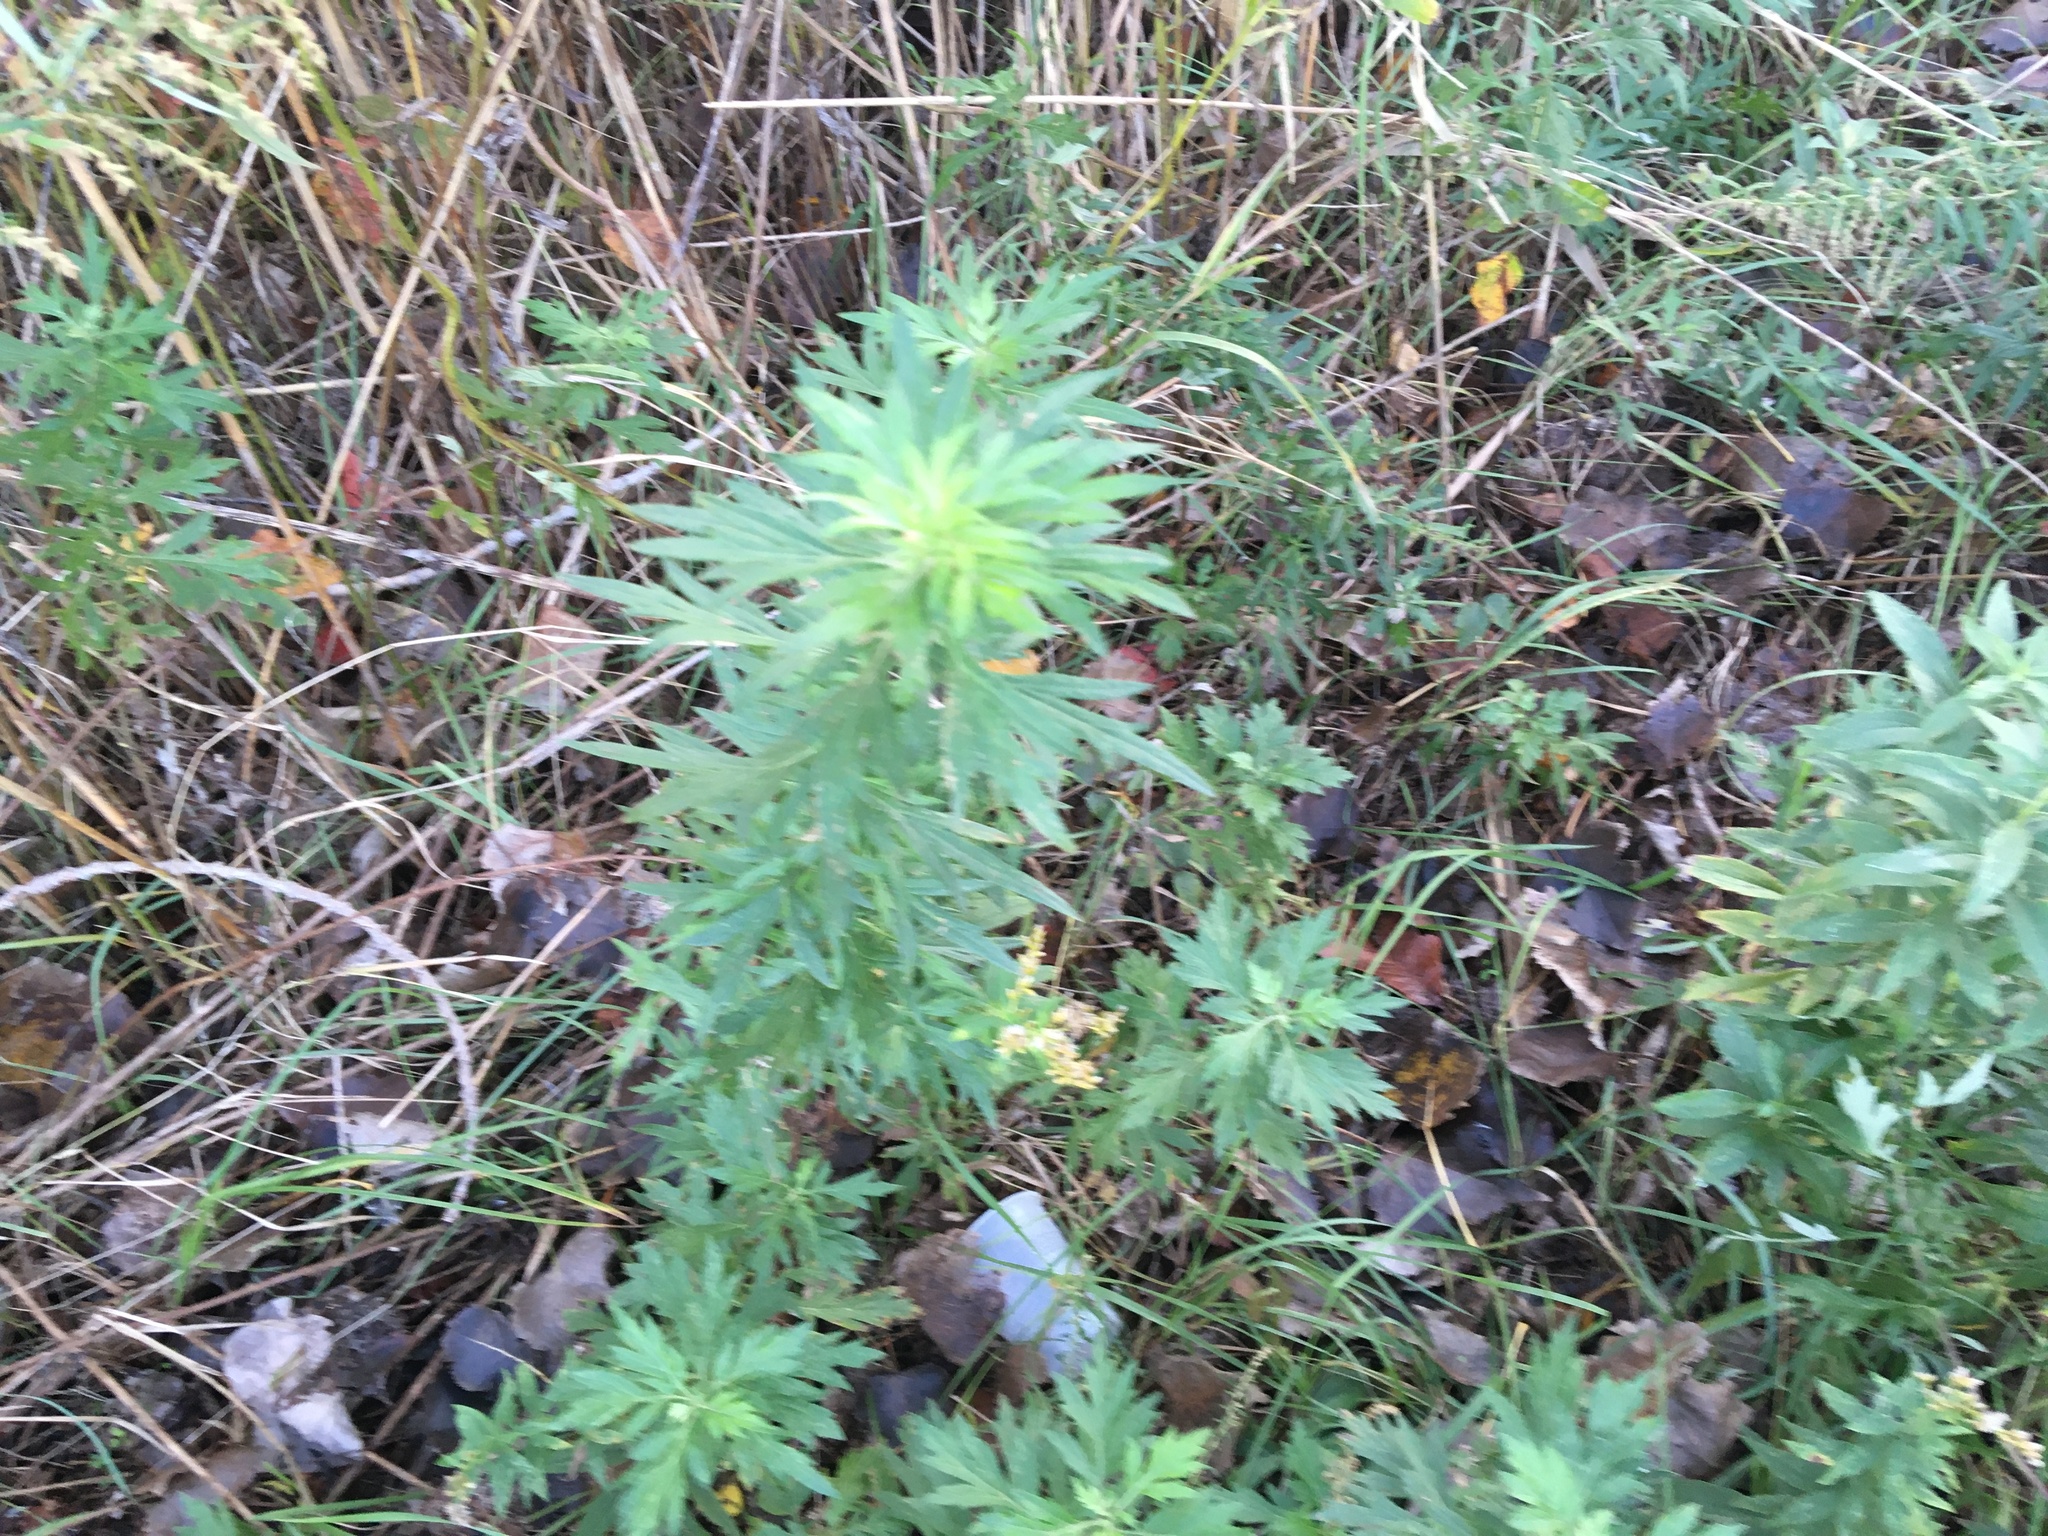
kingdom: Plantae
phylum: Tracheophyta
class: Magnoliopsida
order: Asterales
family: Asteraceae
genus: Artemisia
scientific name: Artemisia vulgaris
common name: Mugwort
